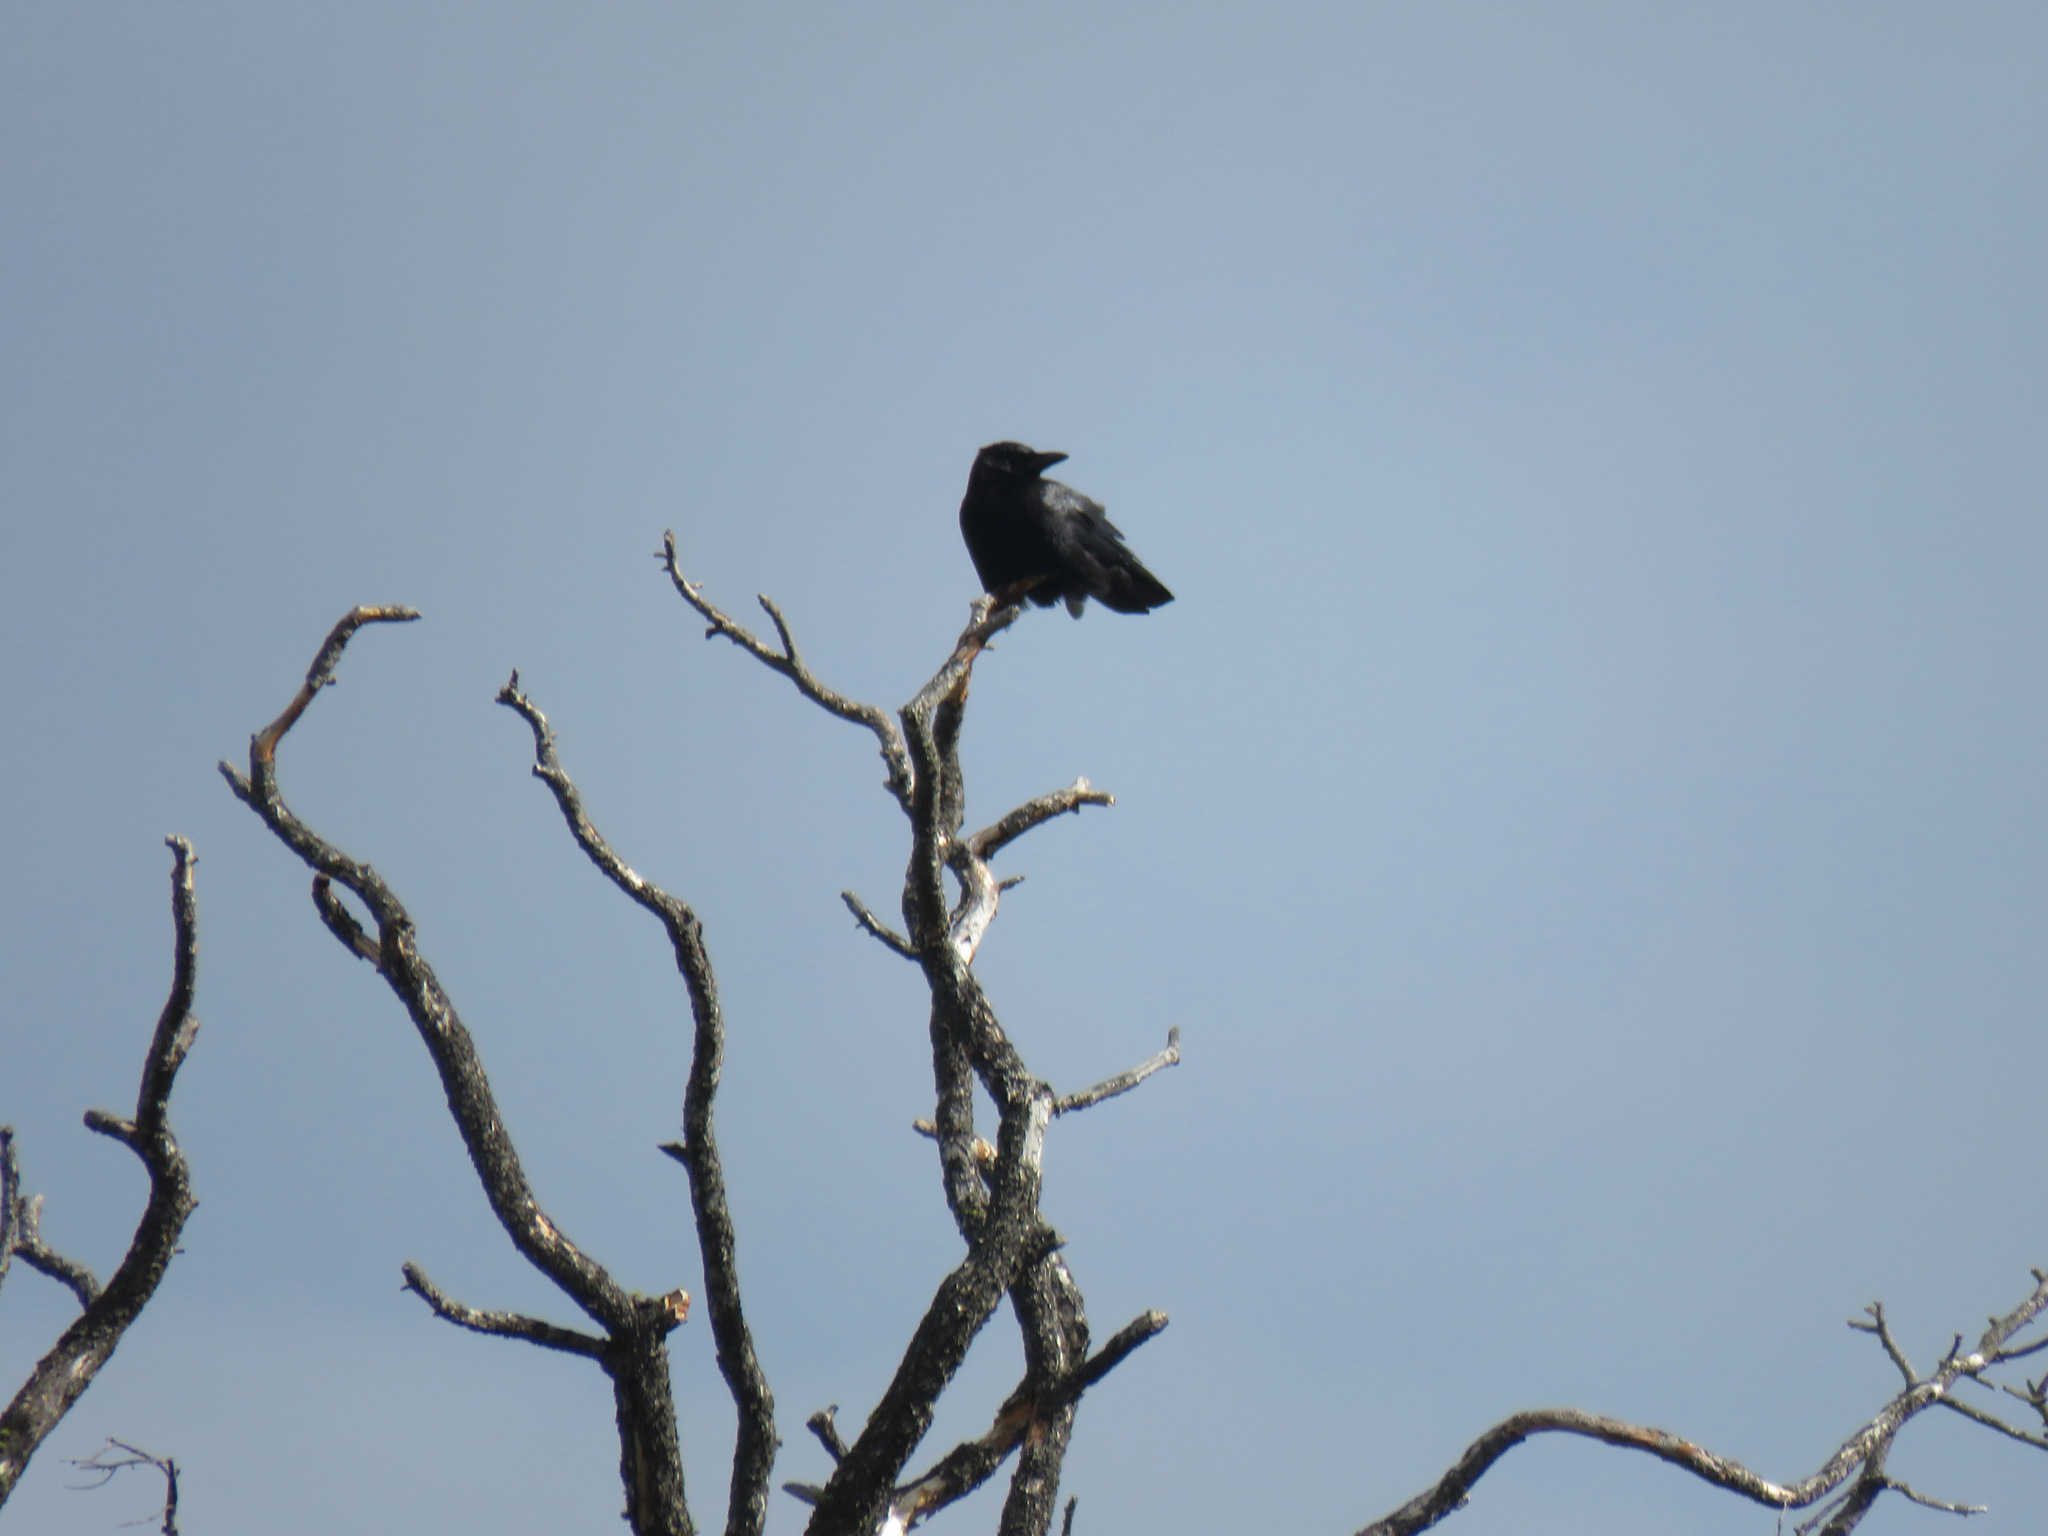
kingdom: Animalia
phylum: Chordata
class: Aves
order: Passeriformes
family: Corvidae
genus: Corvus
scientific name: Corvus brachyrhynchos
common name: American crow
